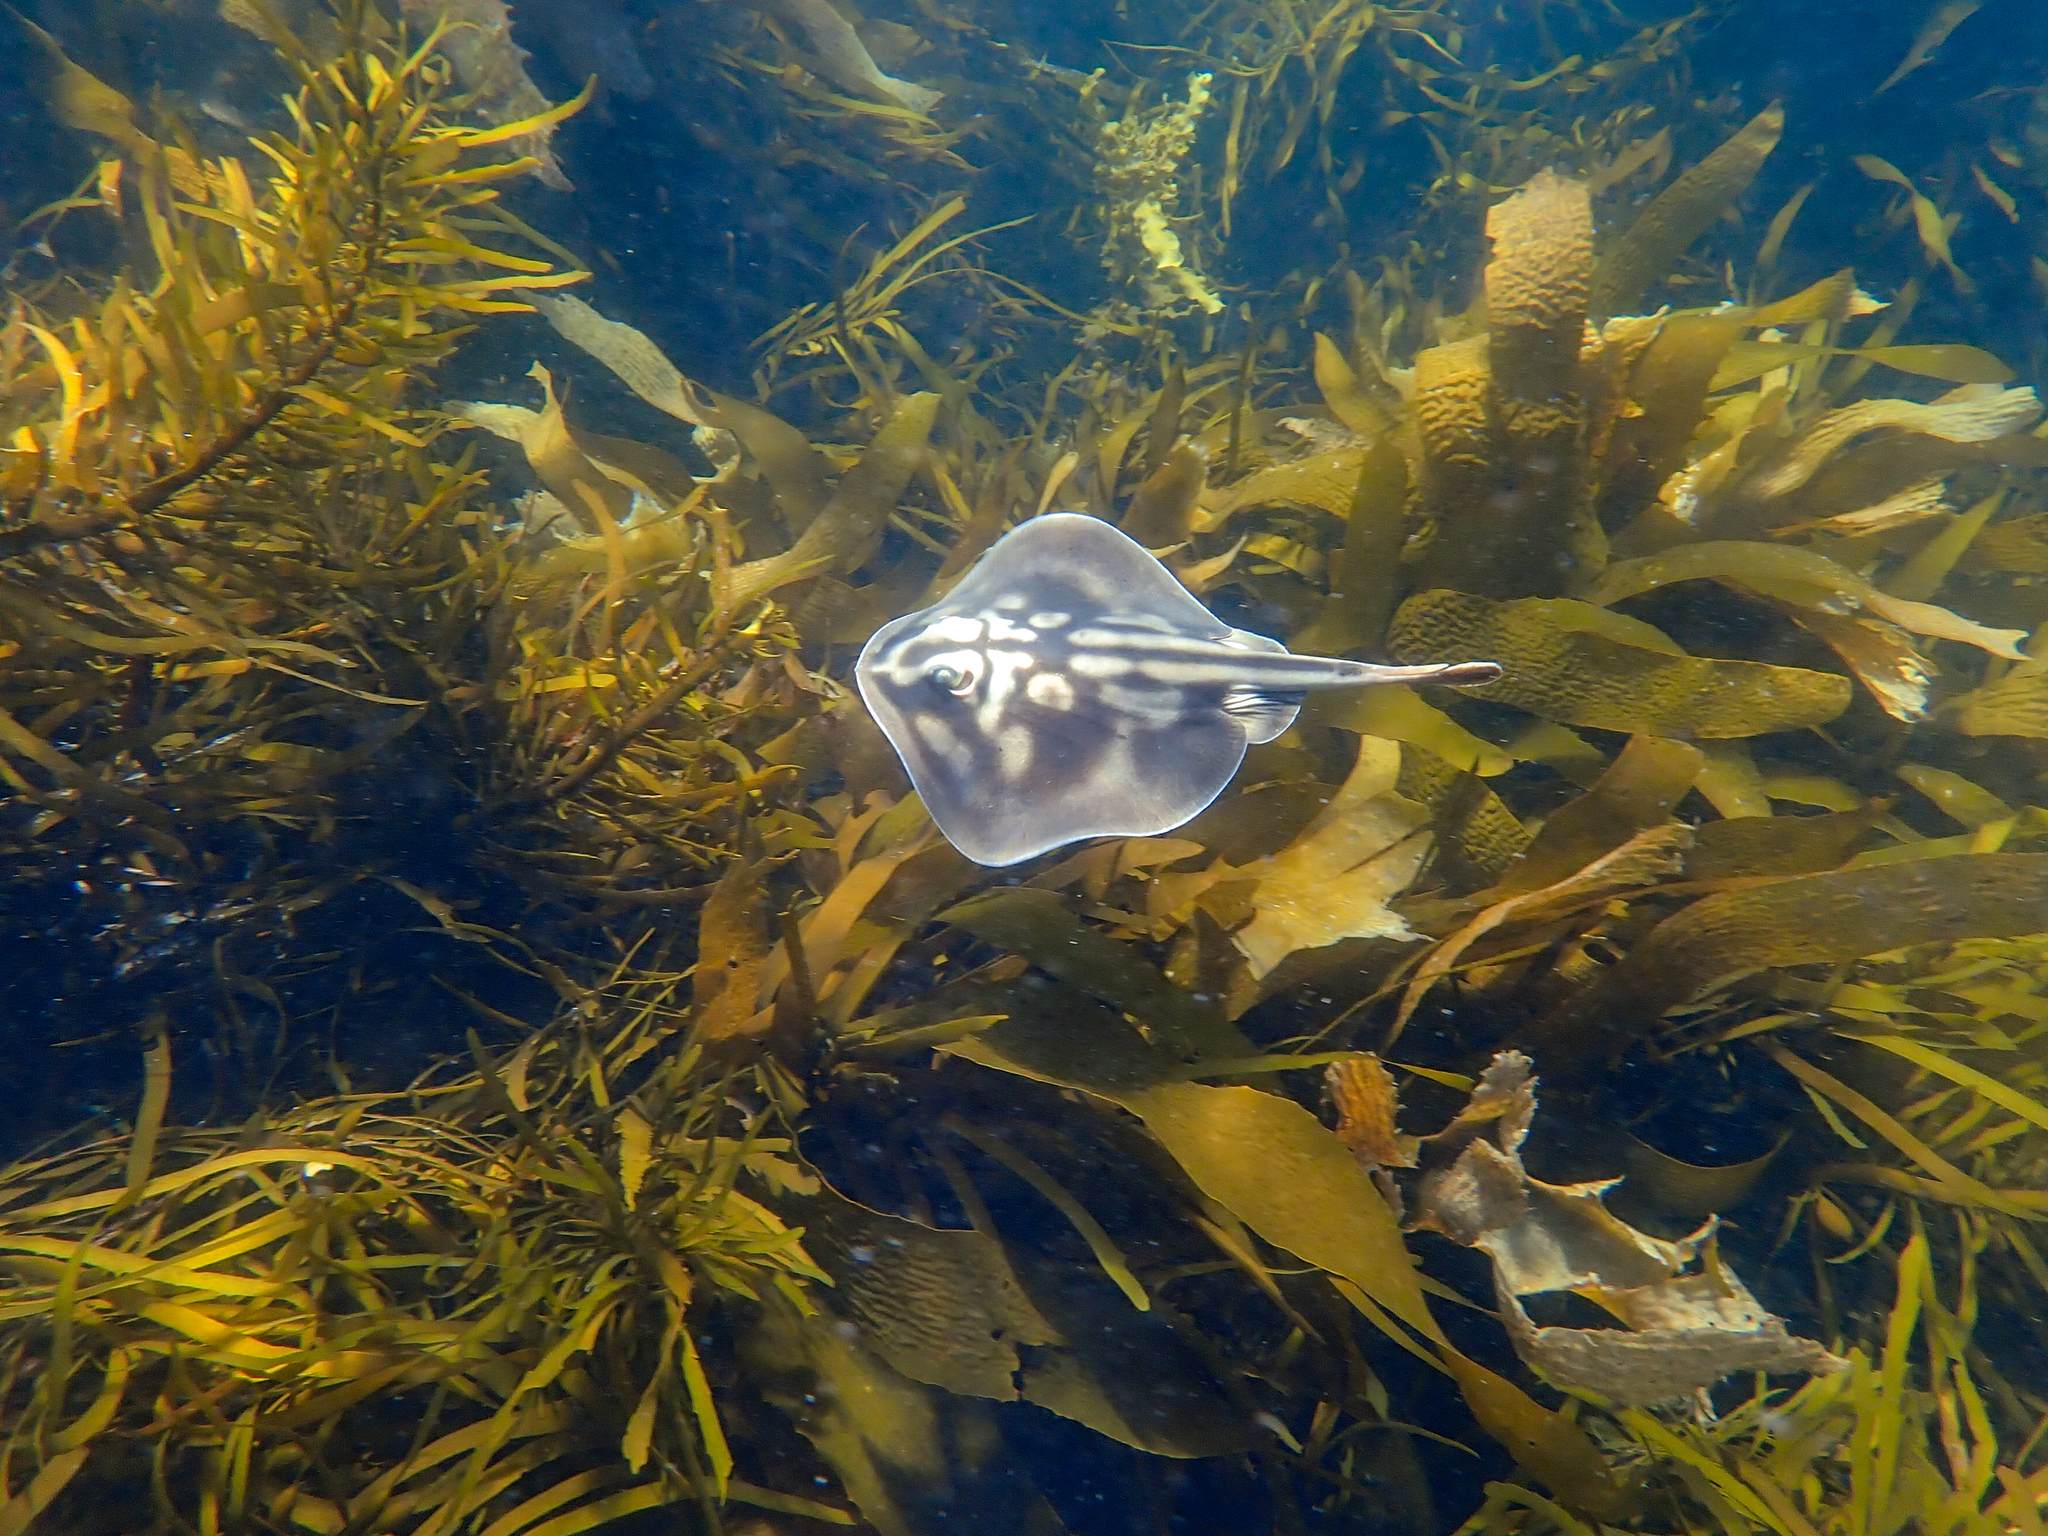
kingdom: Animalia
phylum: Chordata
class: Elasmobranchii
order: Myliobatiformes
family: Urolophidae
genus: Urolophus
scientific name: Urolophus cruciatus
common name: Banded stingaree
